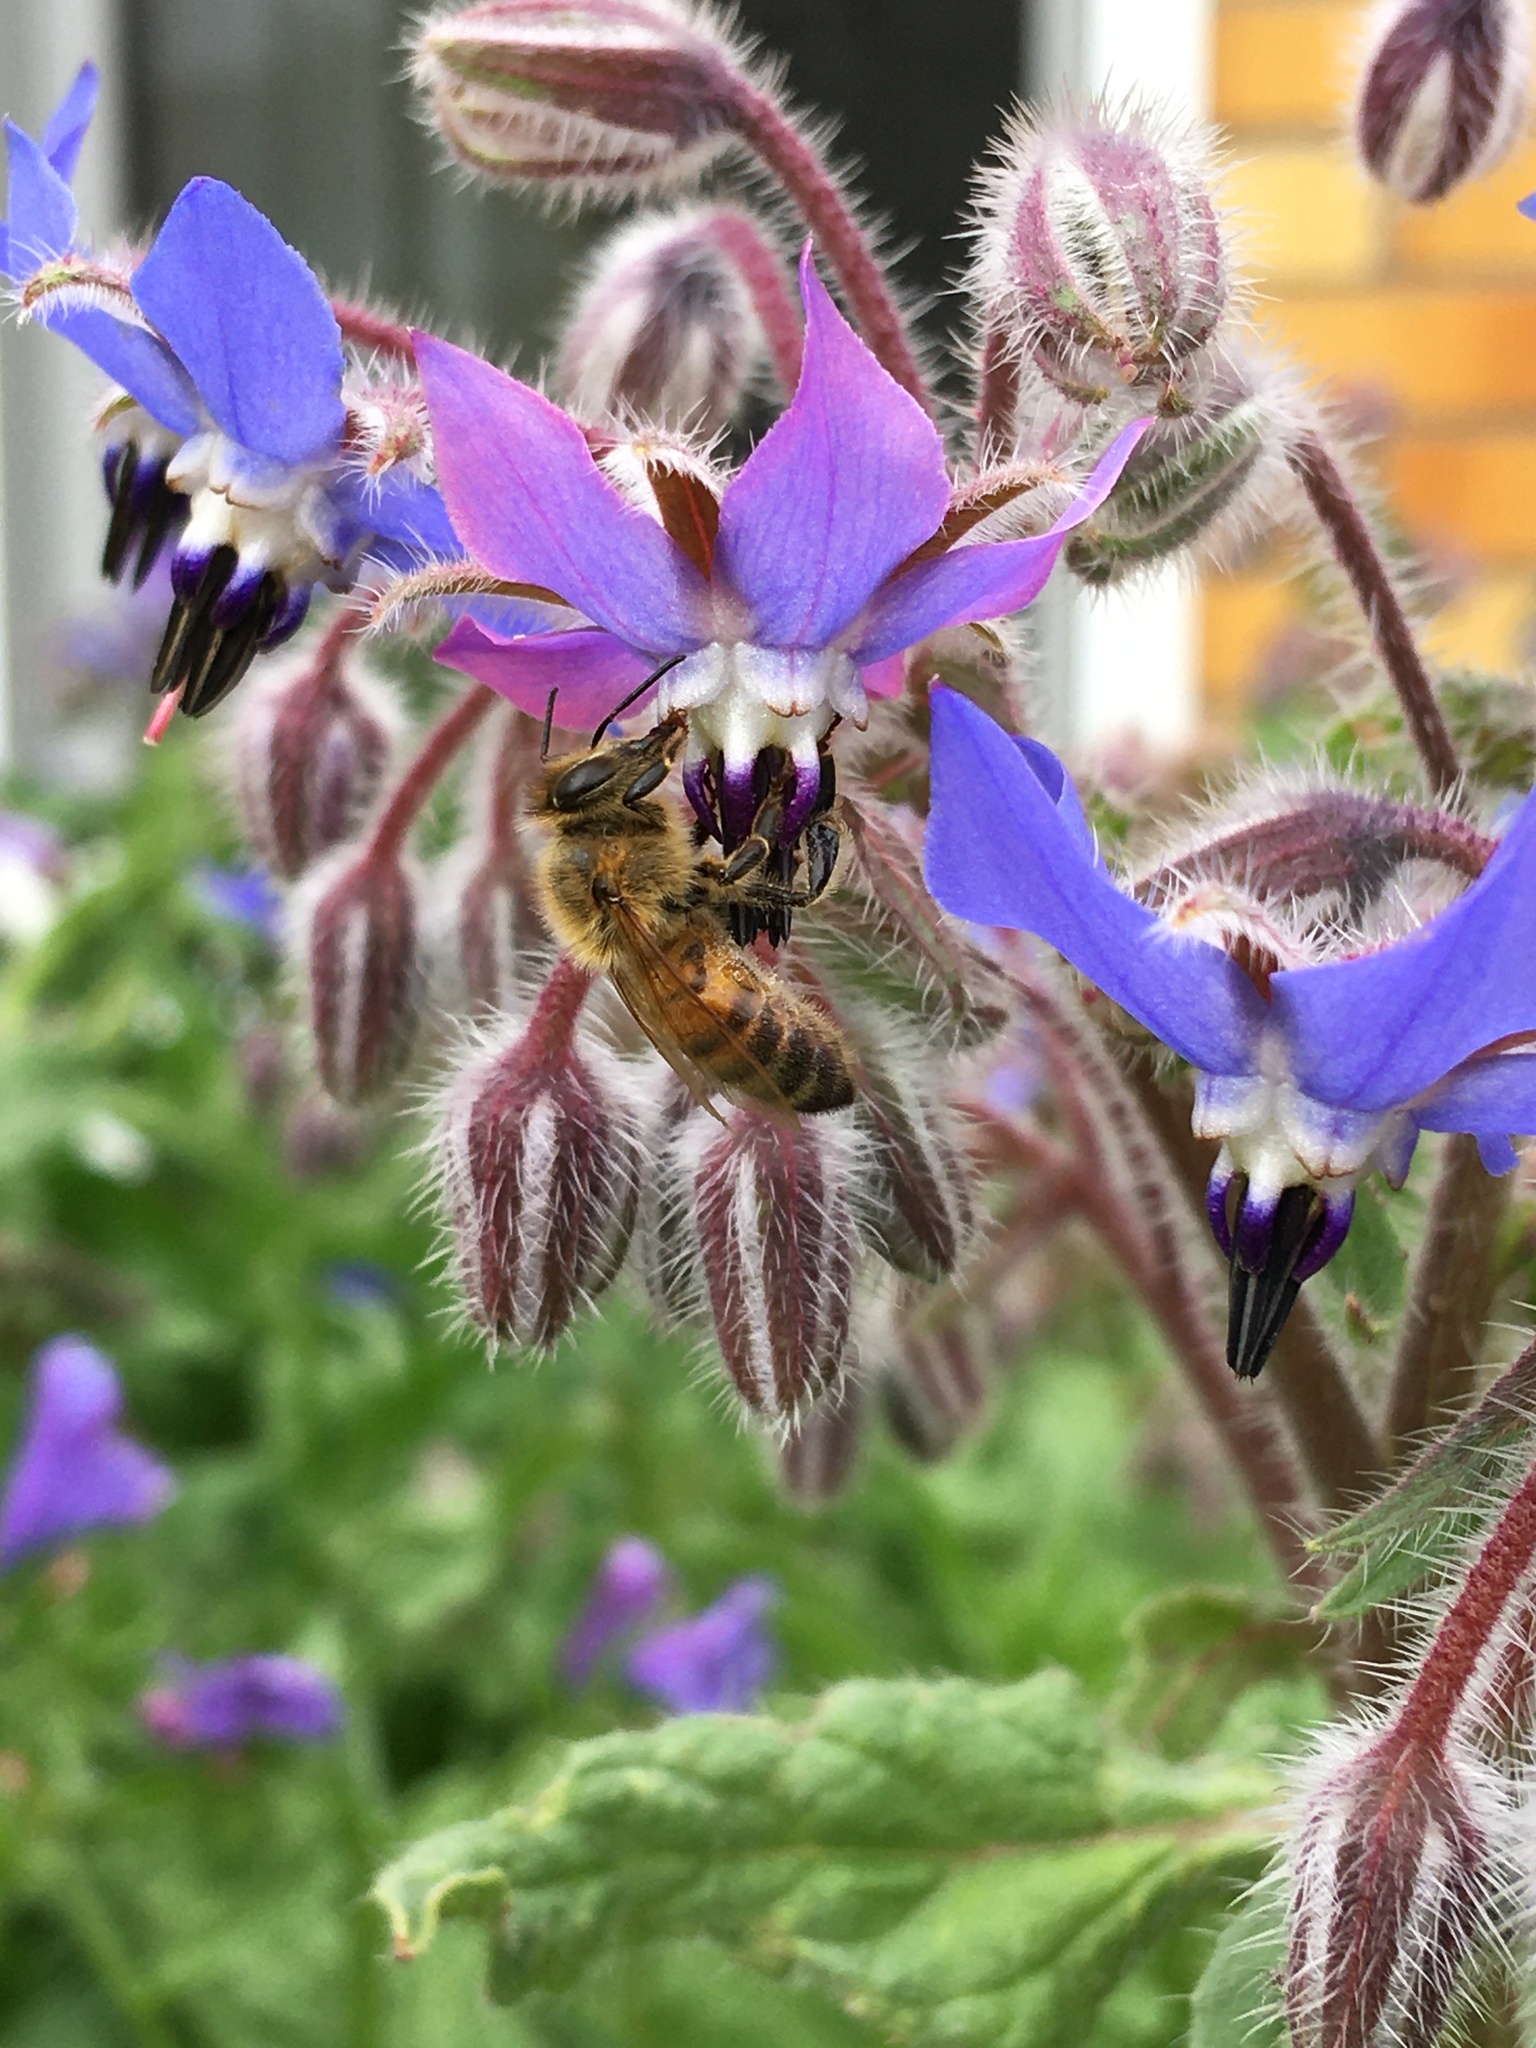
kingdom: Animalia
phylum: Arthropoda
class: Insecta
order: Hymenoptera
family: Apidae
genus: Apis
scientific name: Apis mellifera
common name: Honey bee
